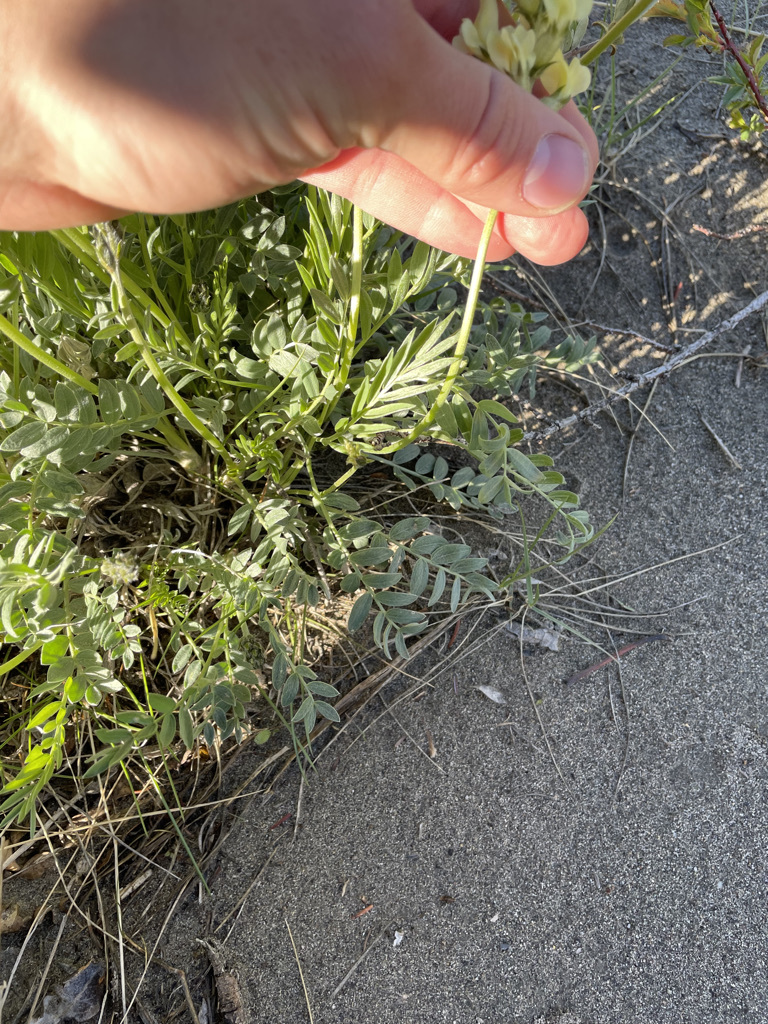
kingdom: Plantae
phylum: Tracheophyta
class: Magnoliopsida
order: Fabales
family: Fabaceae
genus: Oxytropis
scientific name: Oxytropis sericea
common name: Silky locoweed
